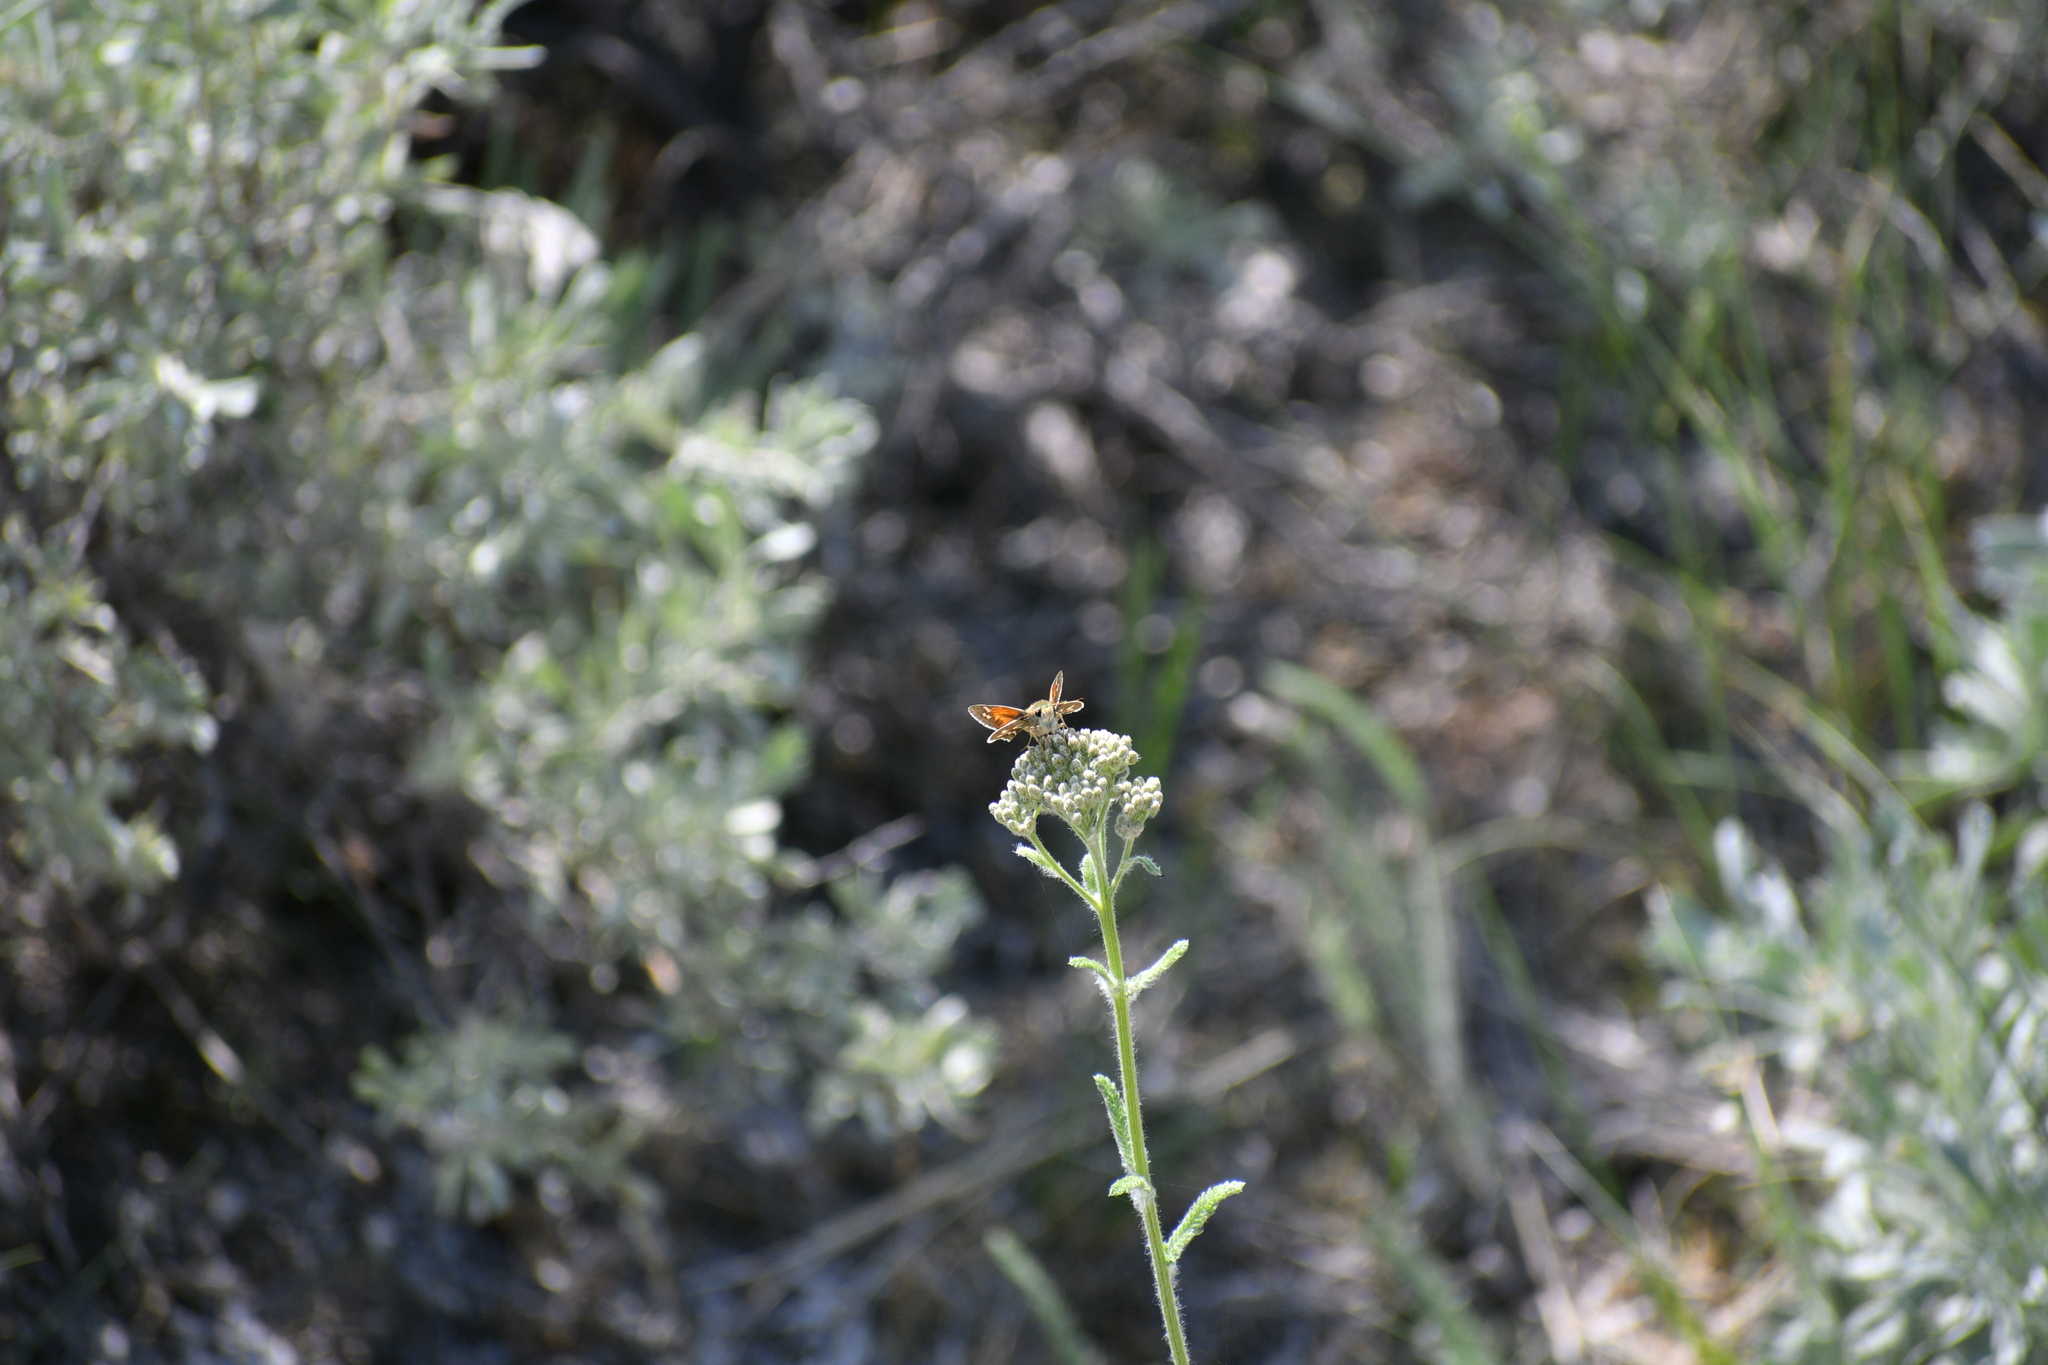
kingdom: Plantae
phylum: Tracheophyta
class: Magnoliopsida
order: Asterales
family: Asteraceae
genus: Achillea
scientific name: Achillea millefolium
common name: Yarrow
